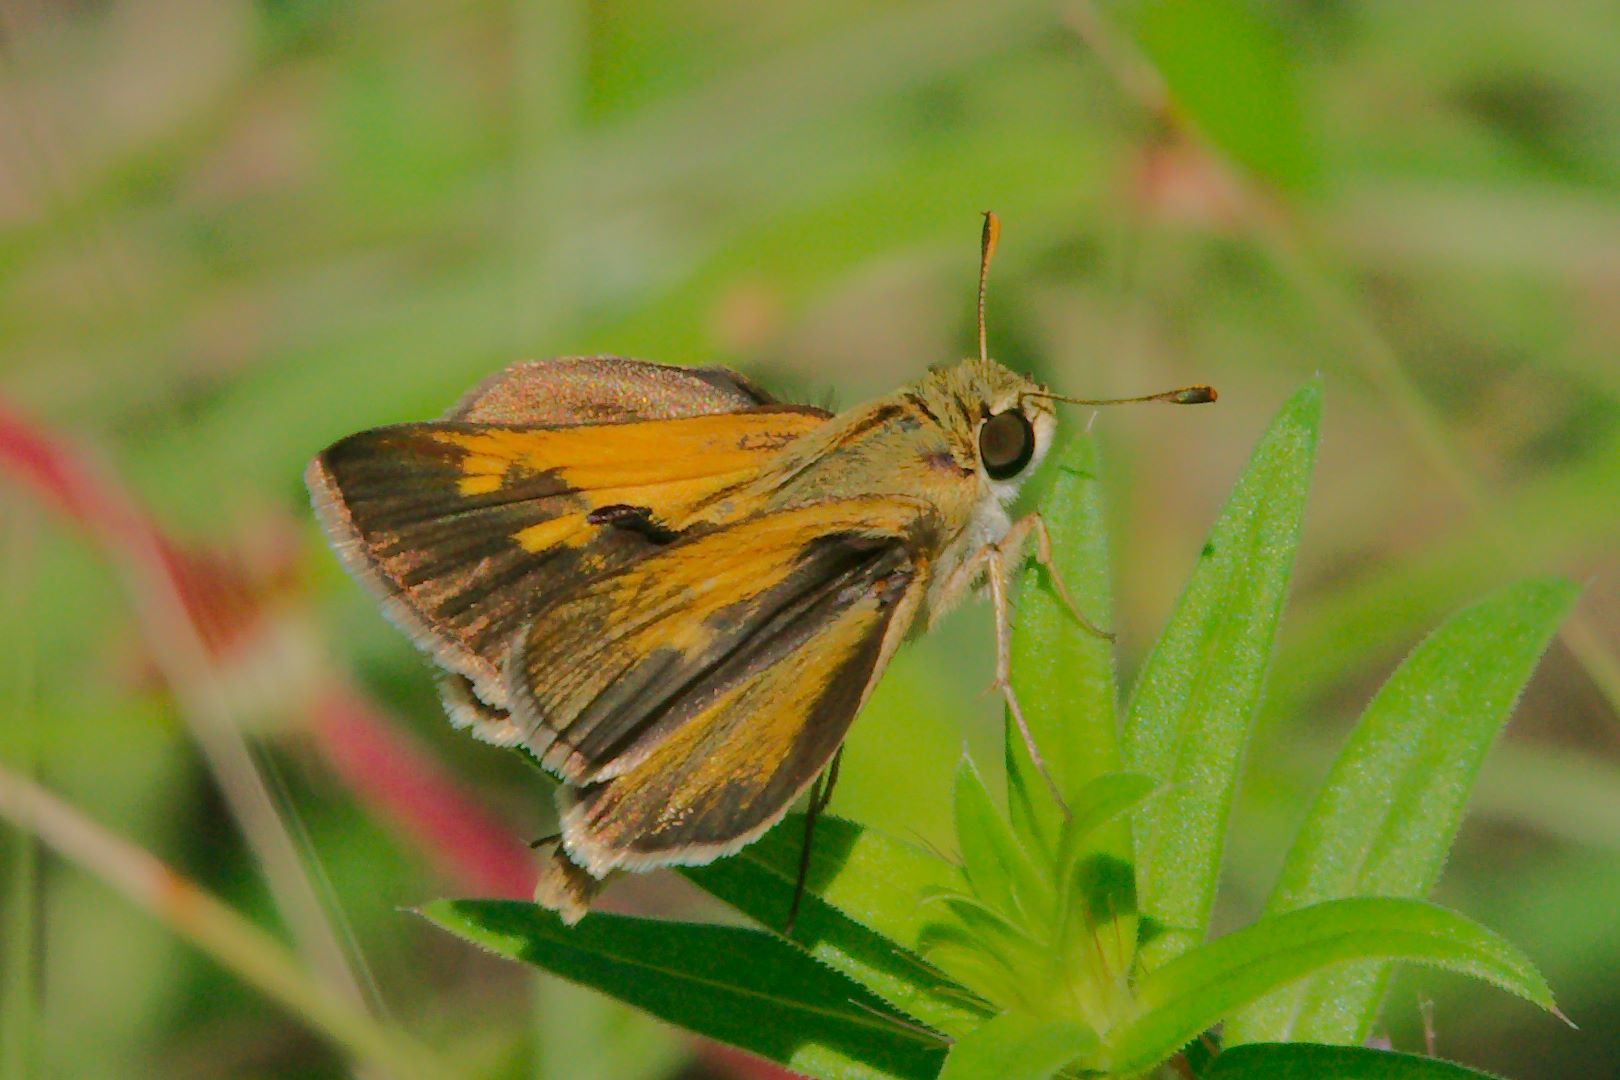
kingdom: Animalia
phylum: Arthropoda
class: Insecta
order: Lepidoptera
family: Hesperiidae
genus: Polites
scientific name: Polites themistocles
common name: Tawny-edged skipper
